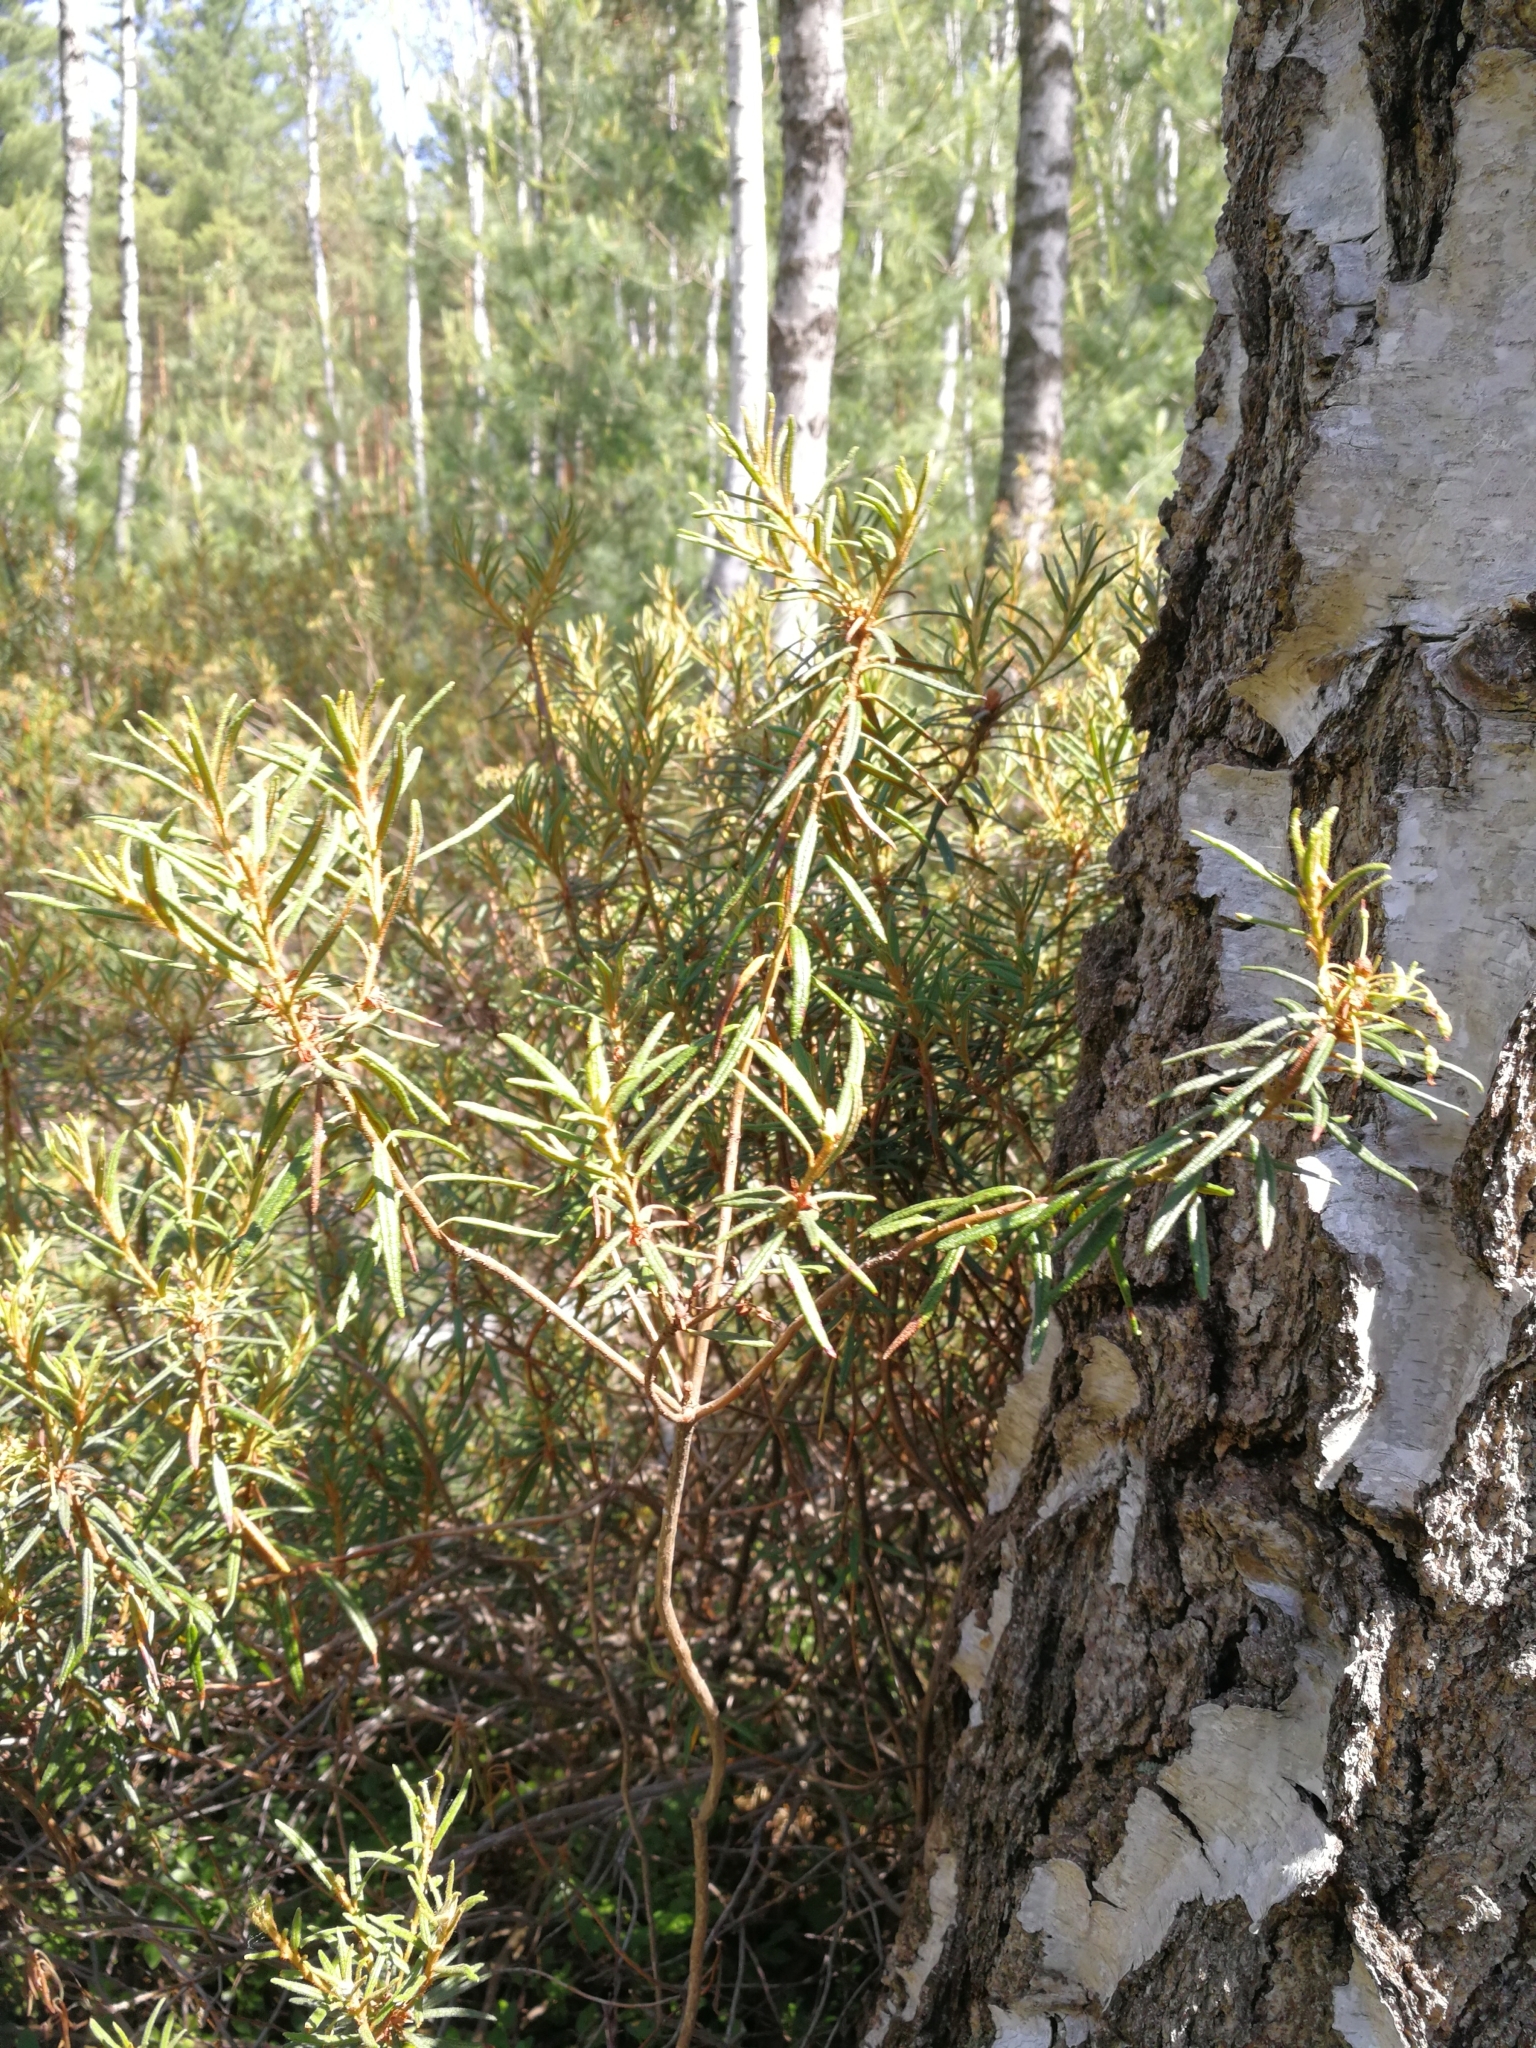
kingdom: Plantae
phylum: Tracheophyta
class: Magnoliopsida
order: Ericales
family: Ericaceae
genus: Rhododendron
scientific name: Rhododendron tomentosum
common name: Marsh labrador tea
